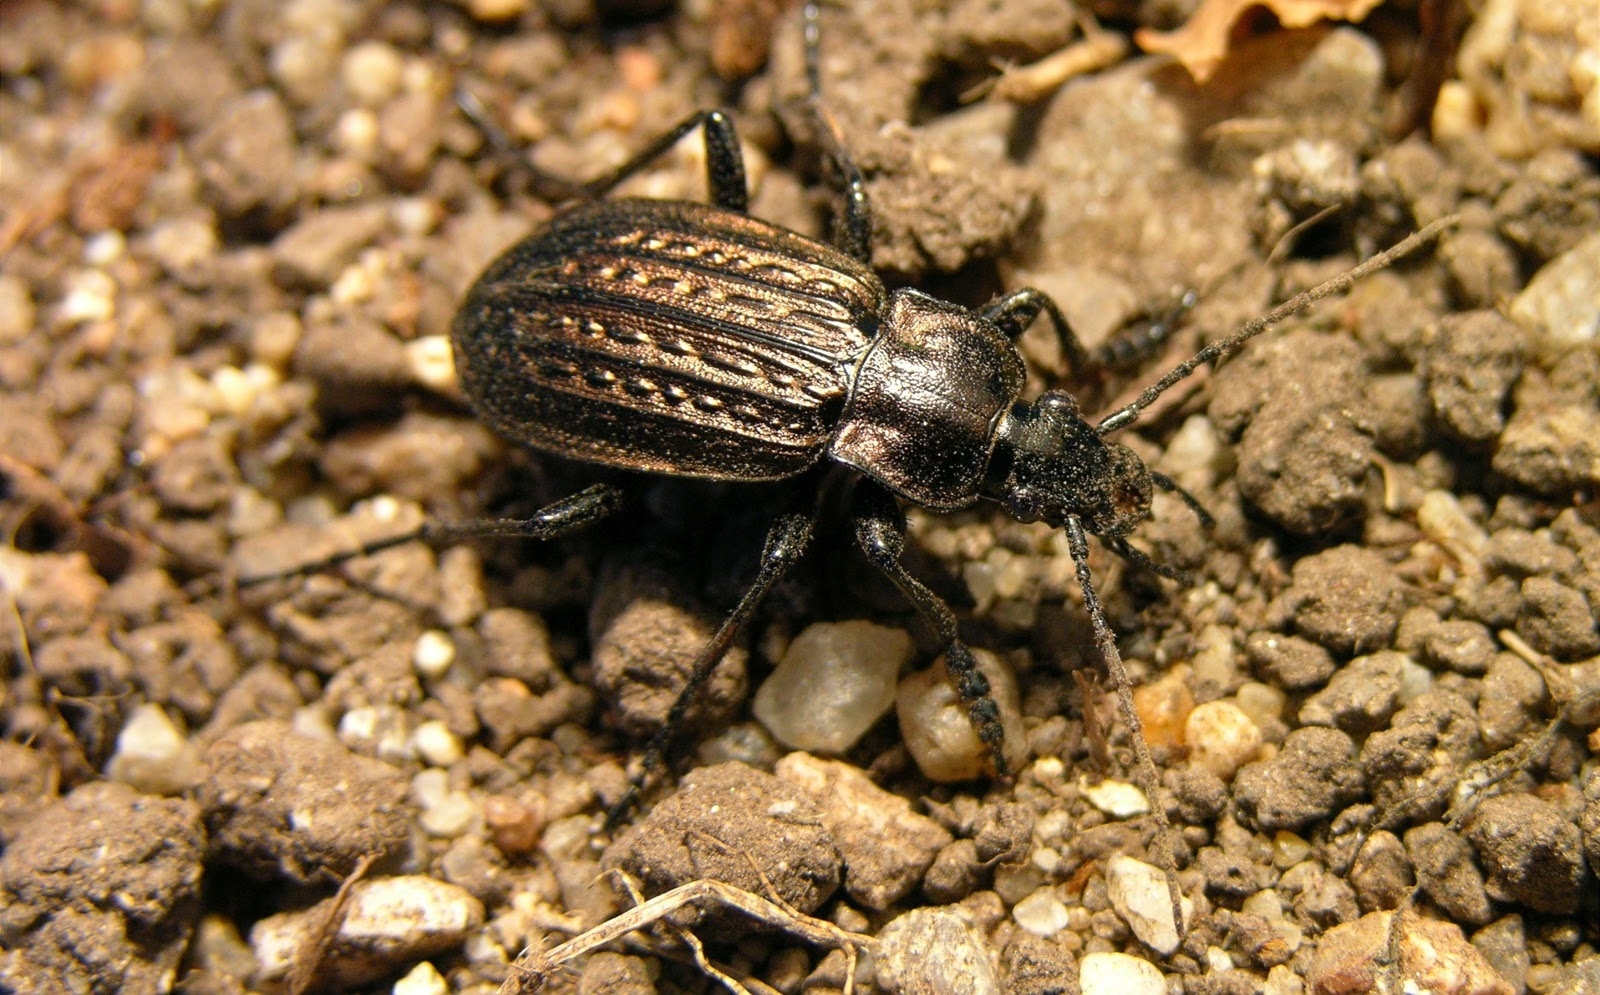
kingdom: Animalia
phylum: Arthropoda
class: Insecta
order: Coleoptera
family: Carabidae
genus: Carabus
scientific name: Carabus granulatus
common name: Granulate ground beetle
